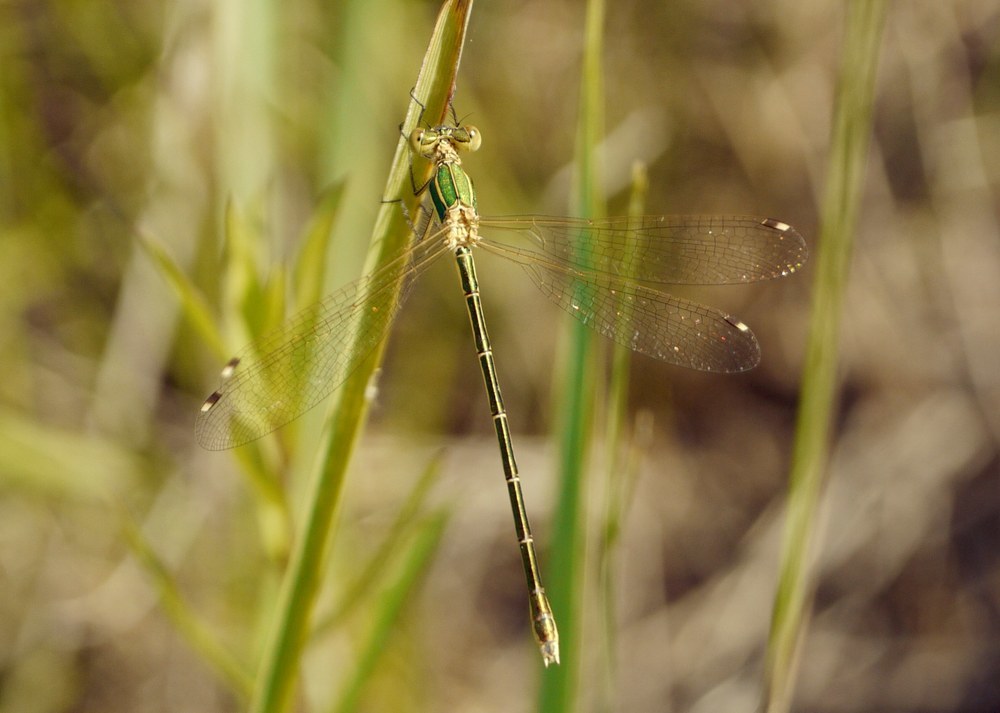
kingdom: Animalia
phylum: Arthropoda
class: Insecta
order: Odonata
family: Lestidae
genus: Lestes
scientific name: Lestes barbarus
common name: Migrant spreadwing
